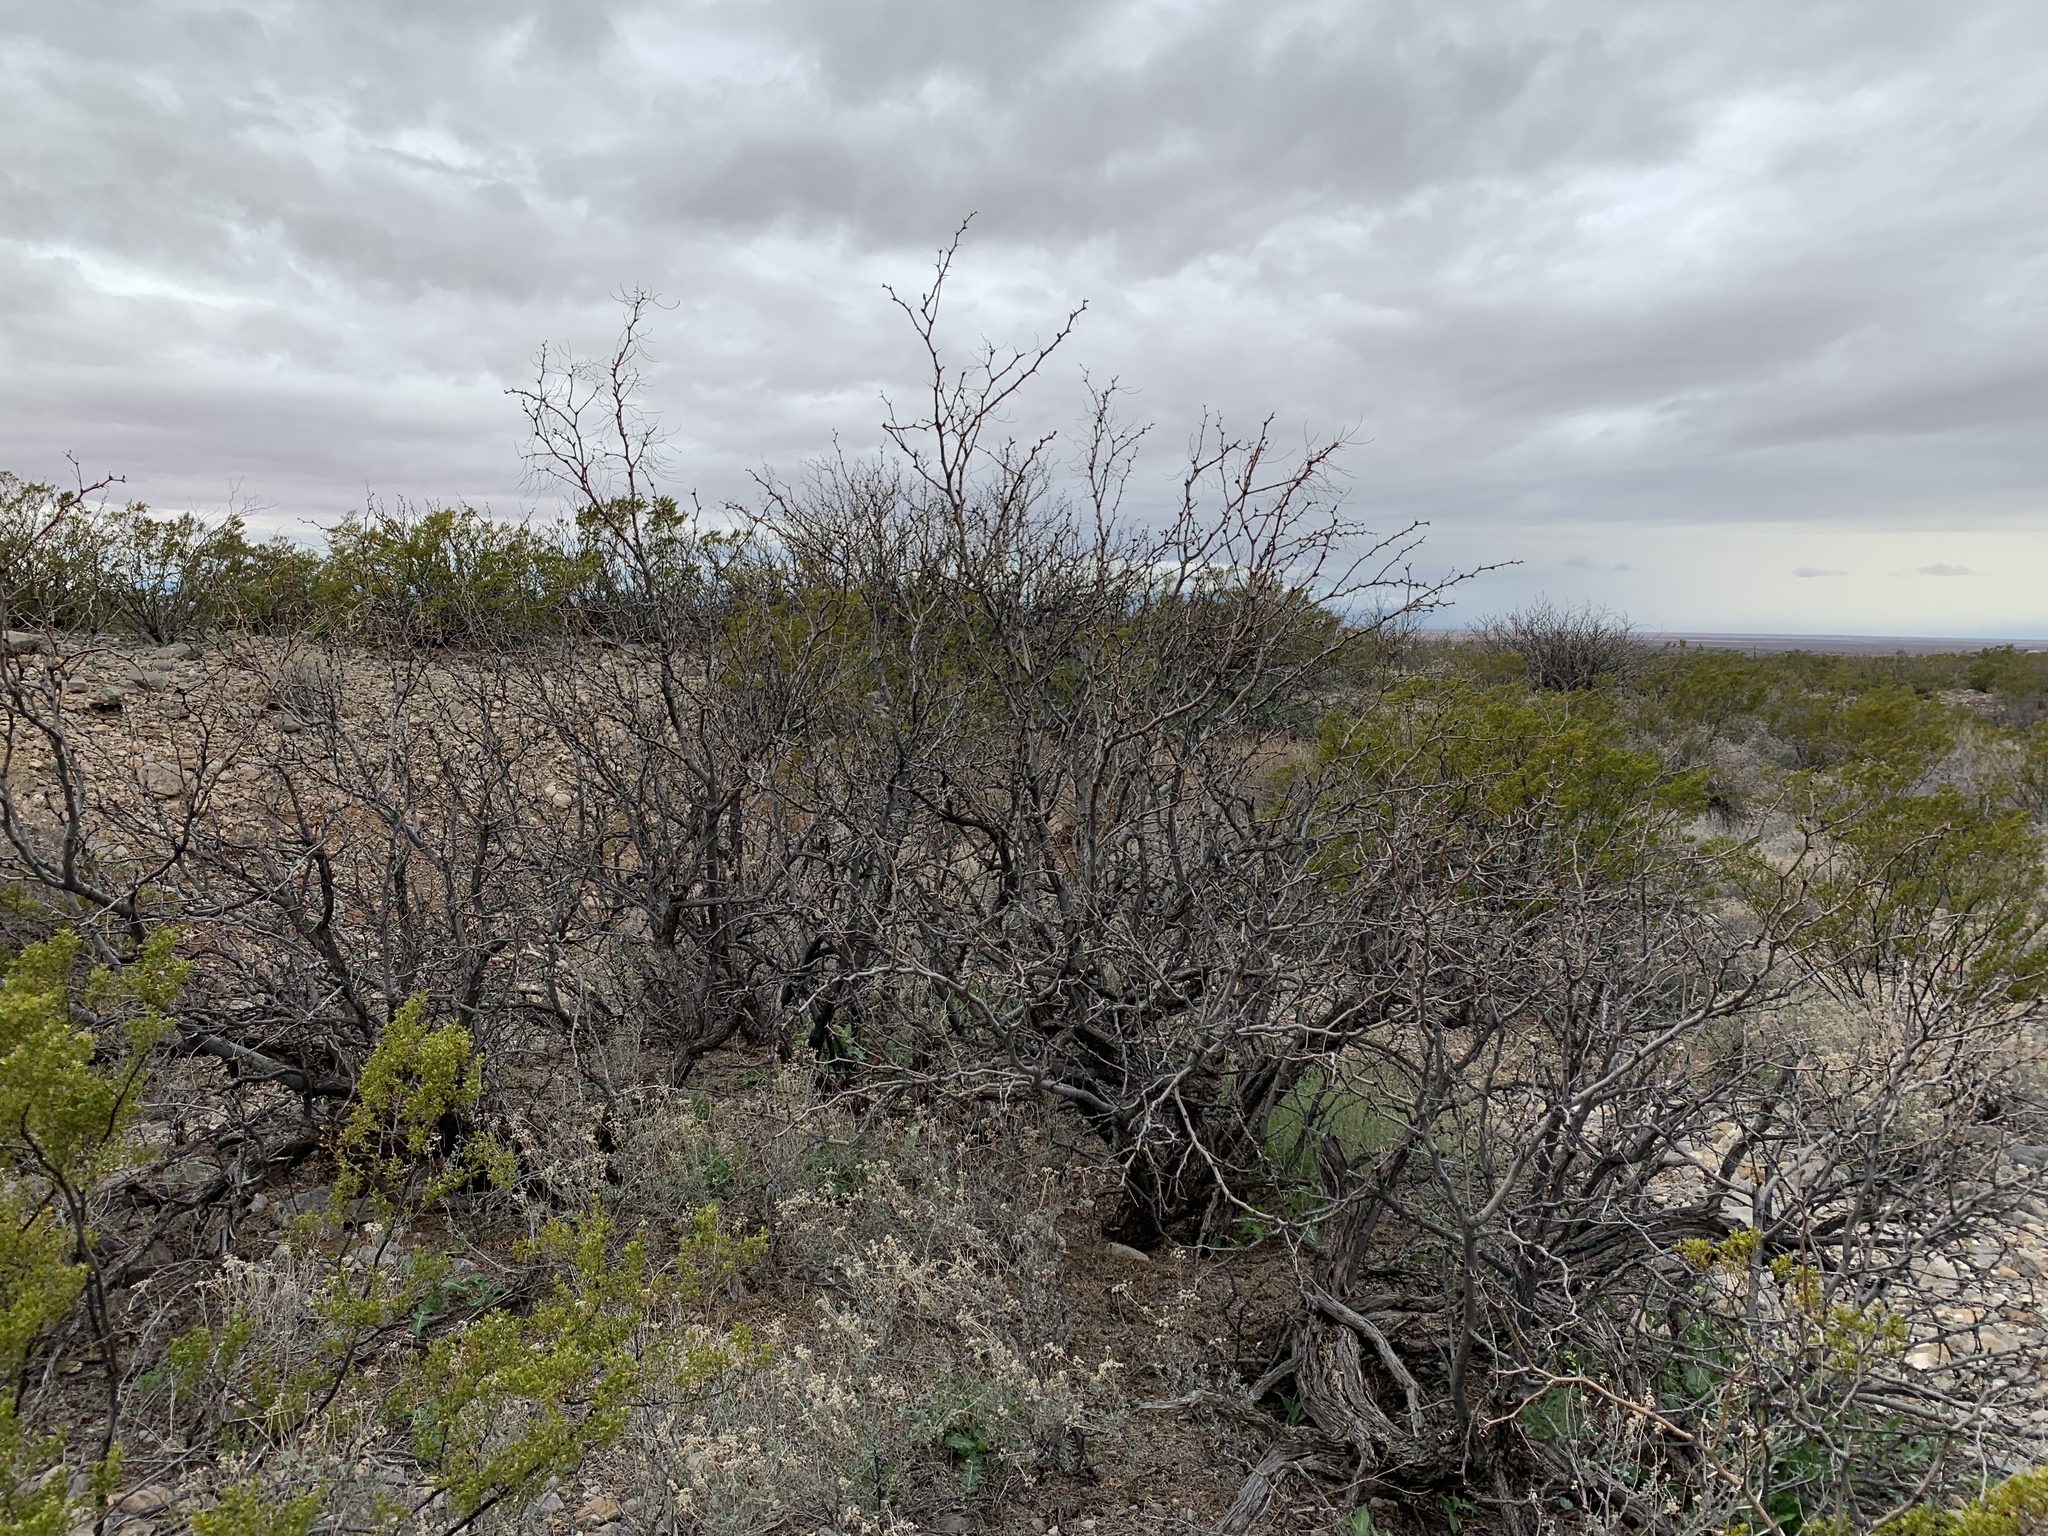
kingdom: Plantae
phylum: Tracheophyta
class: Magnoliopsida
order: Fabales
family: Fabaceae
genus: Prosopis
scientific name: Prosopis glandulosa
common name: Honey mesquite
